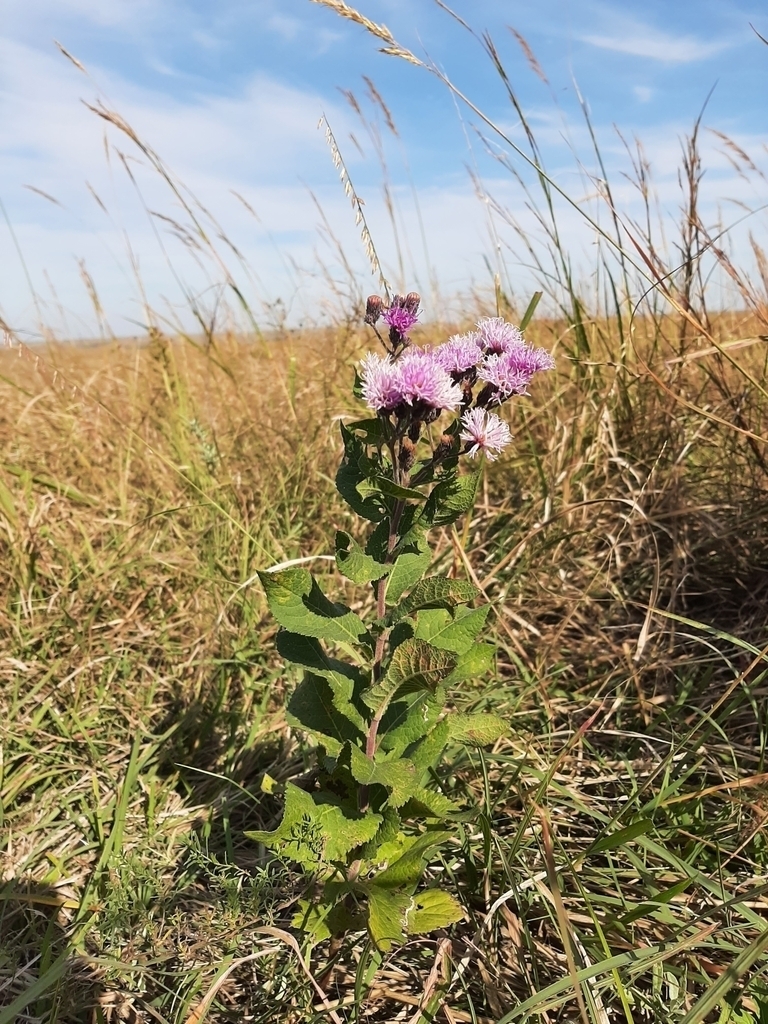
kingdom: Plantae
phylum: Tracheophyta
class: Magnoliopsida
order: Asterales
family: Asteraceae
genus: Vernonia
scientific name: Vernonia baldwinii
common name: Western ironweed
